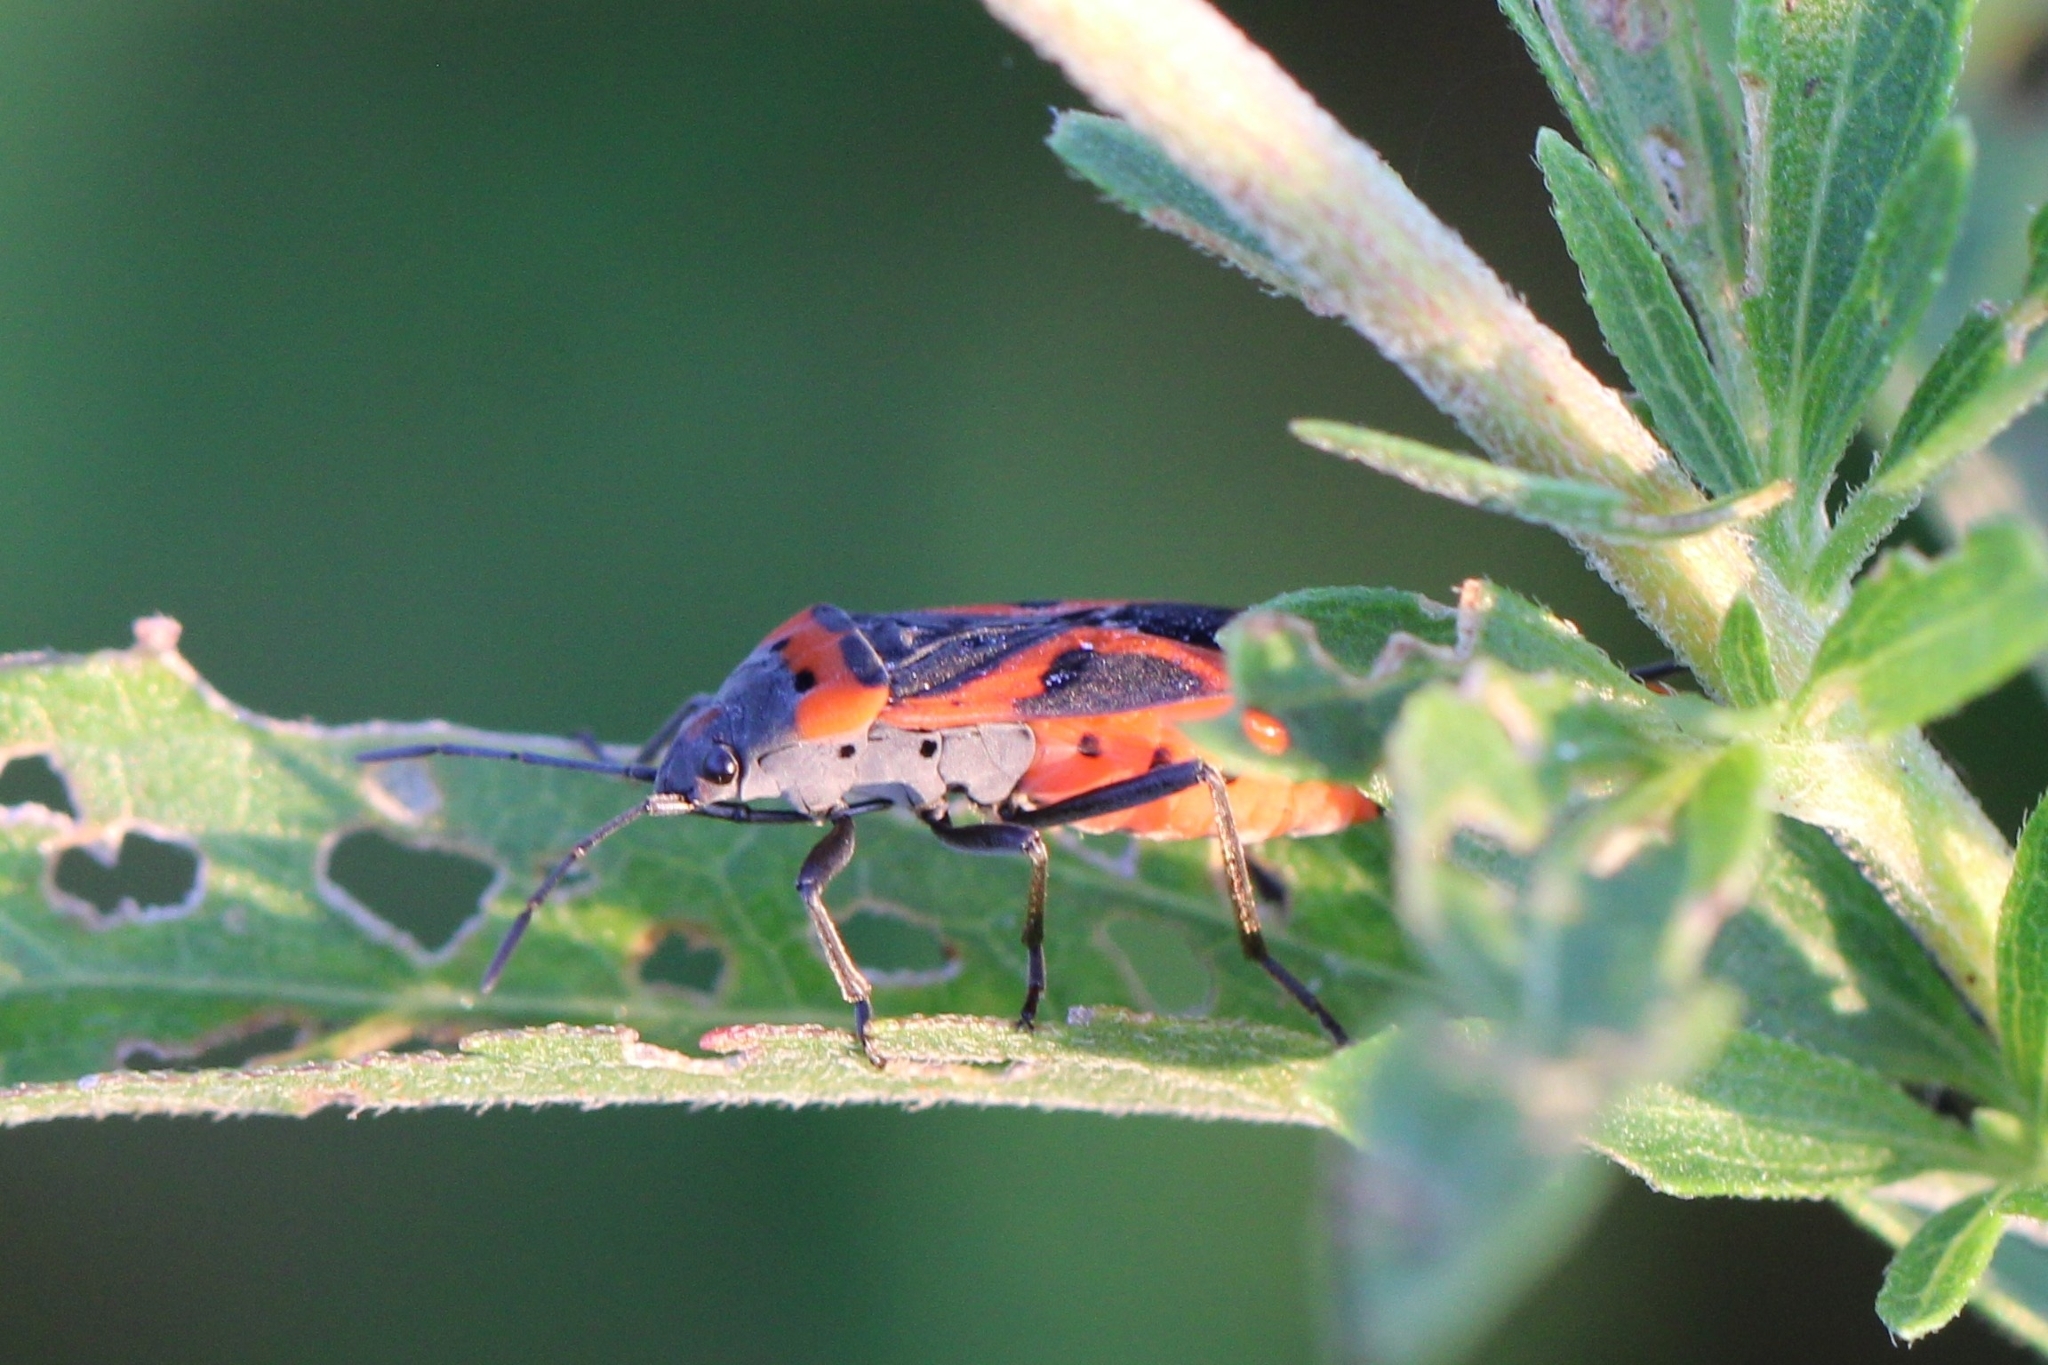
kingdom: Animalia
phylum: Arthropoda
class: Insecta
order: Hemiptera
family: Lygaeidae
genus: Lygaeus
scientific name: Lygaeus kalmii
